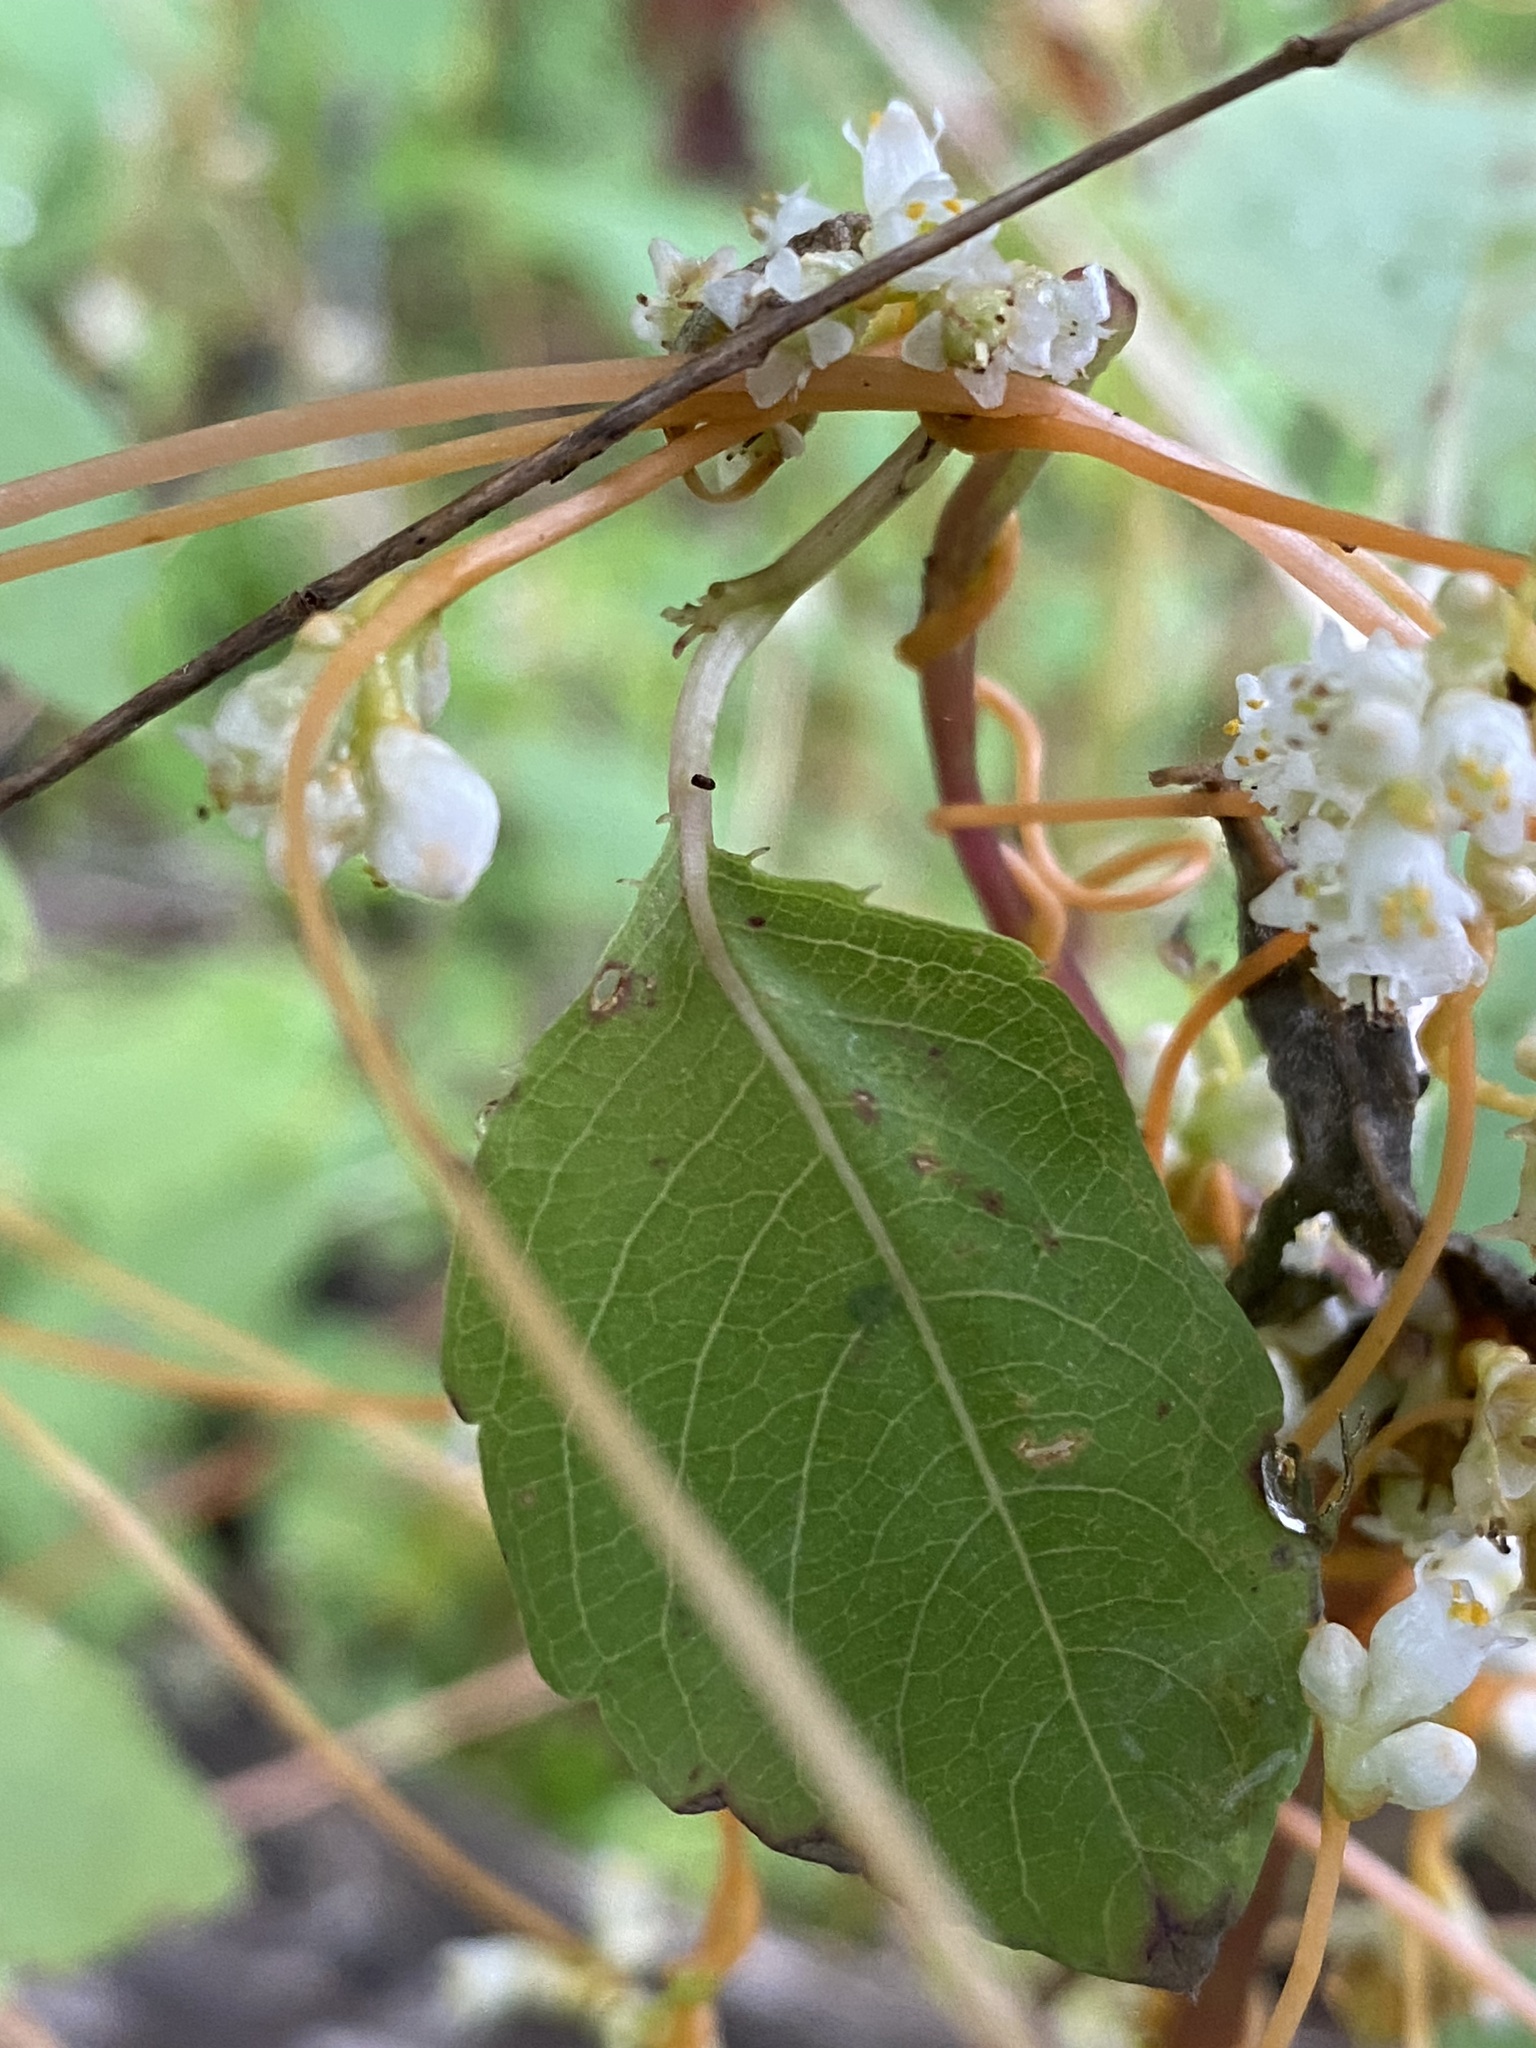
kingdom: Plantae
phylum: Tracheophyta
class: Magnoliopsida
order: Solanales
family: Convolvulaceae
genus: Cuscuta
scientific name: Cuscuta gronovii
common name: Common dodder
